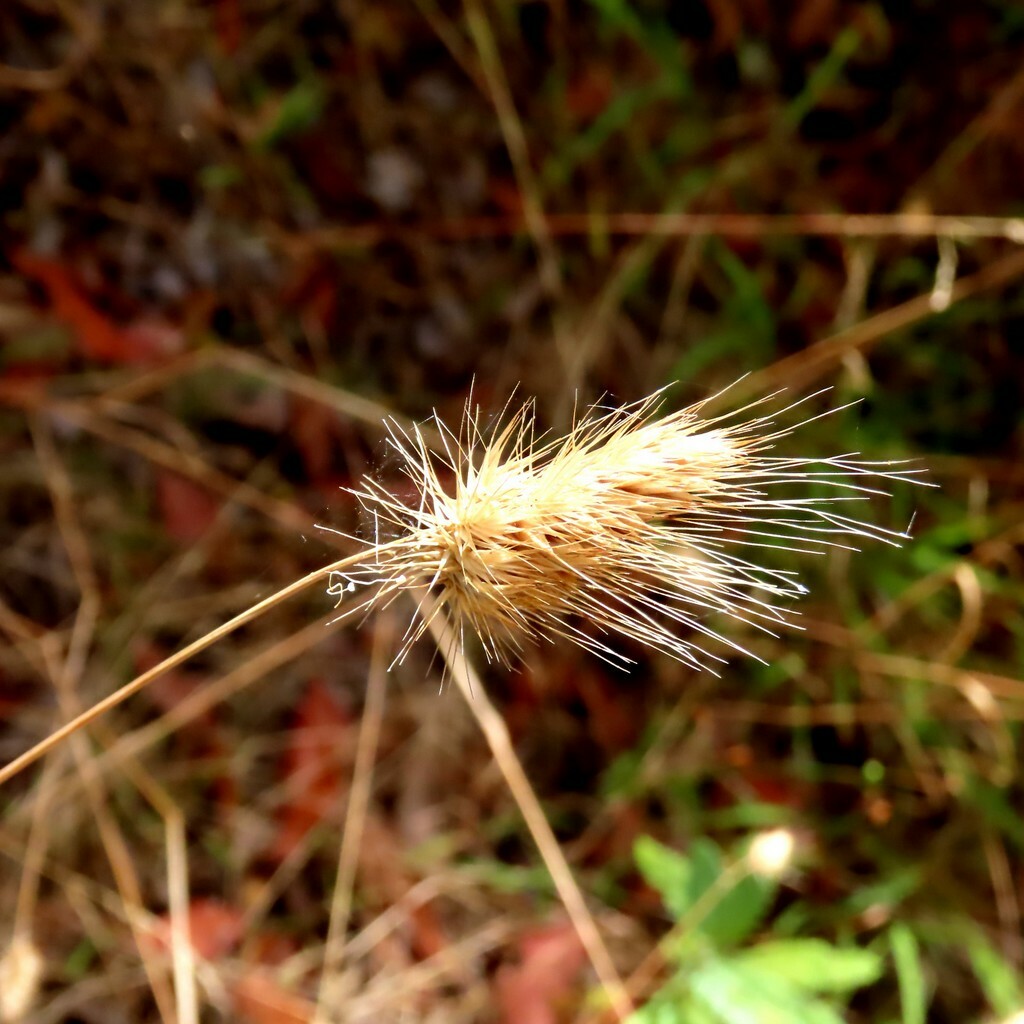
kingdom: Plantae
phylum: Tracheophyta
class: Liliopsida
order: Poales
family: Poaceae
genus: Cynosurus
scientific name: Cynosurus echinatus
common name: Rough dog's-tail
